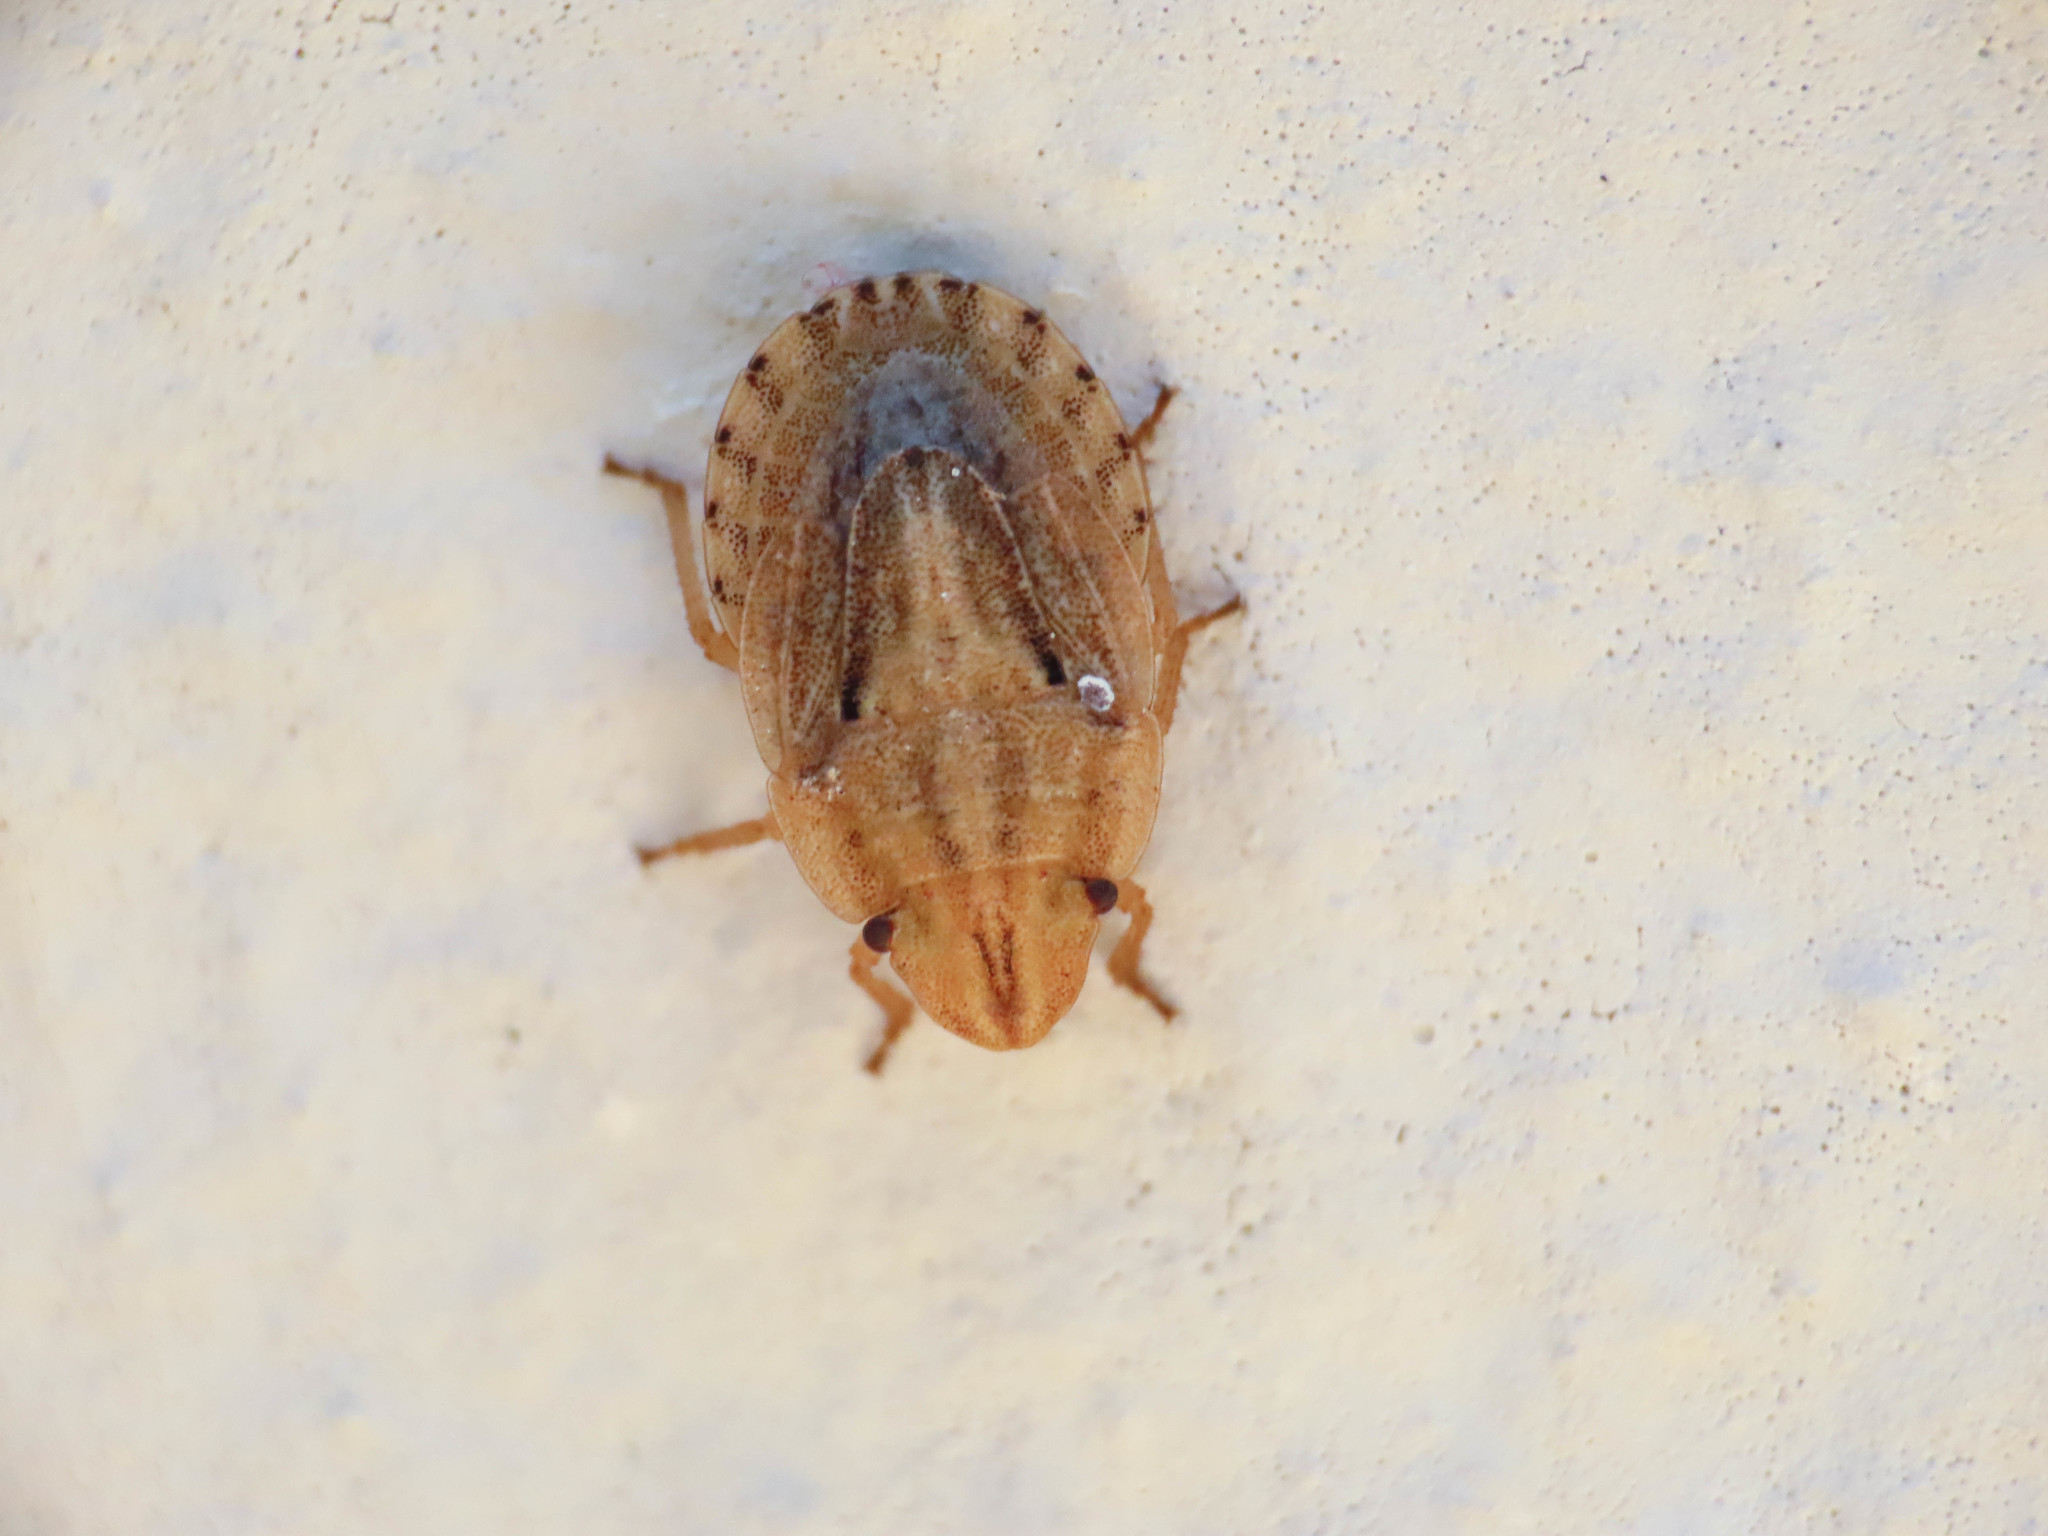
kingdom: Animalia
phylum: Arthropoda
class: Insecta
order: Hemiptera
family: Pentatomidae
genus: Sciocoris
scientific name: Sciocoris sulcatus
